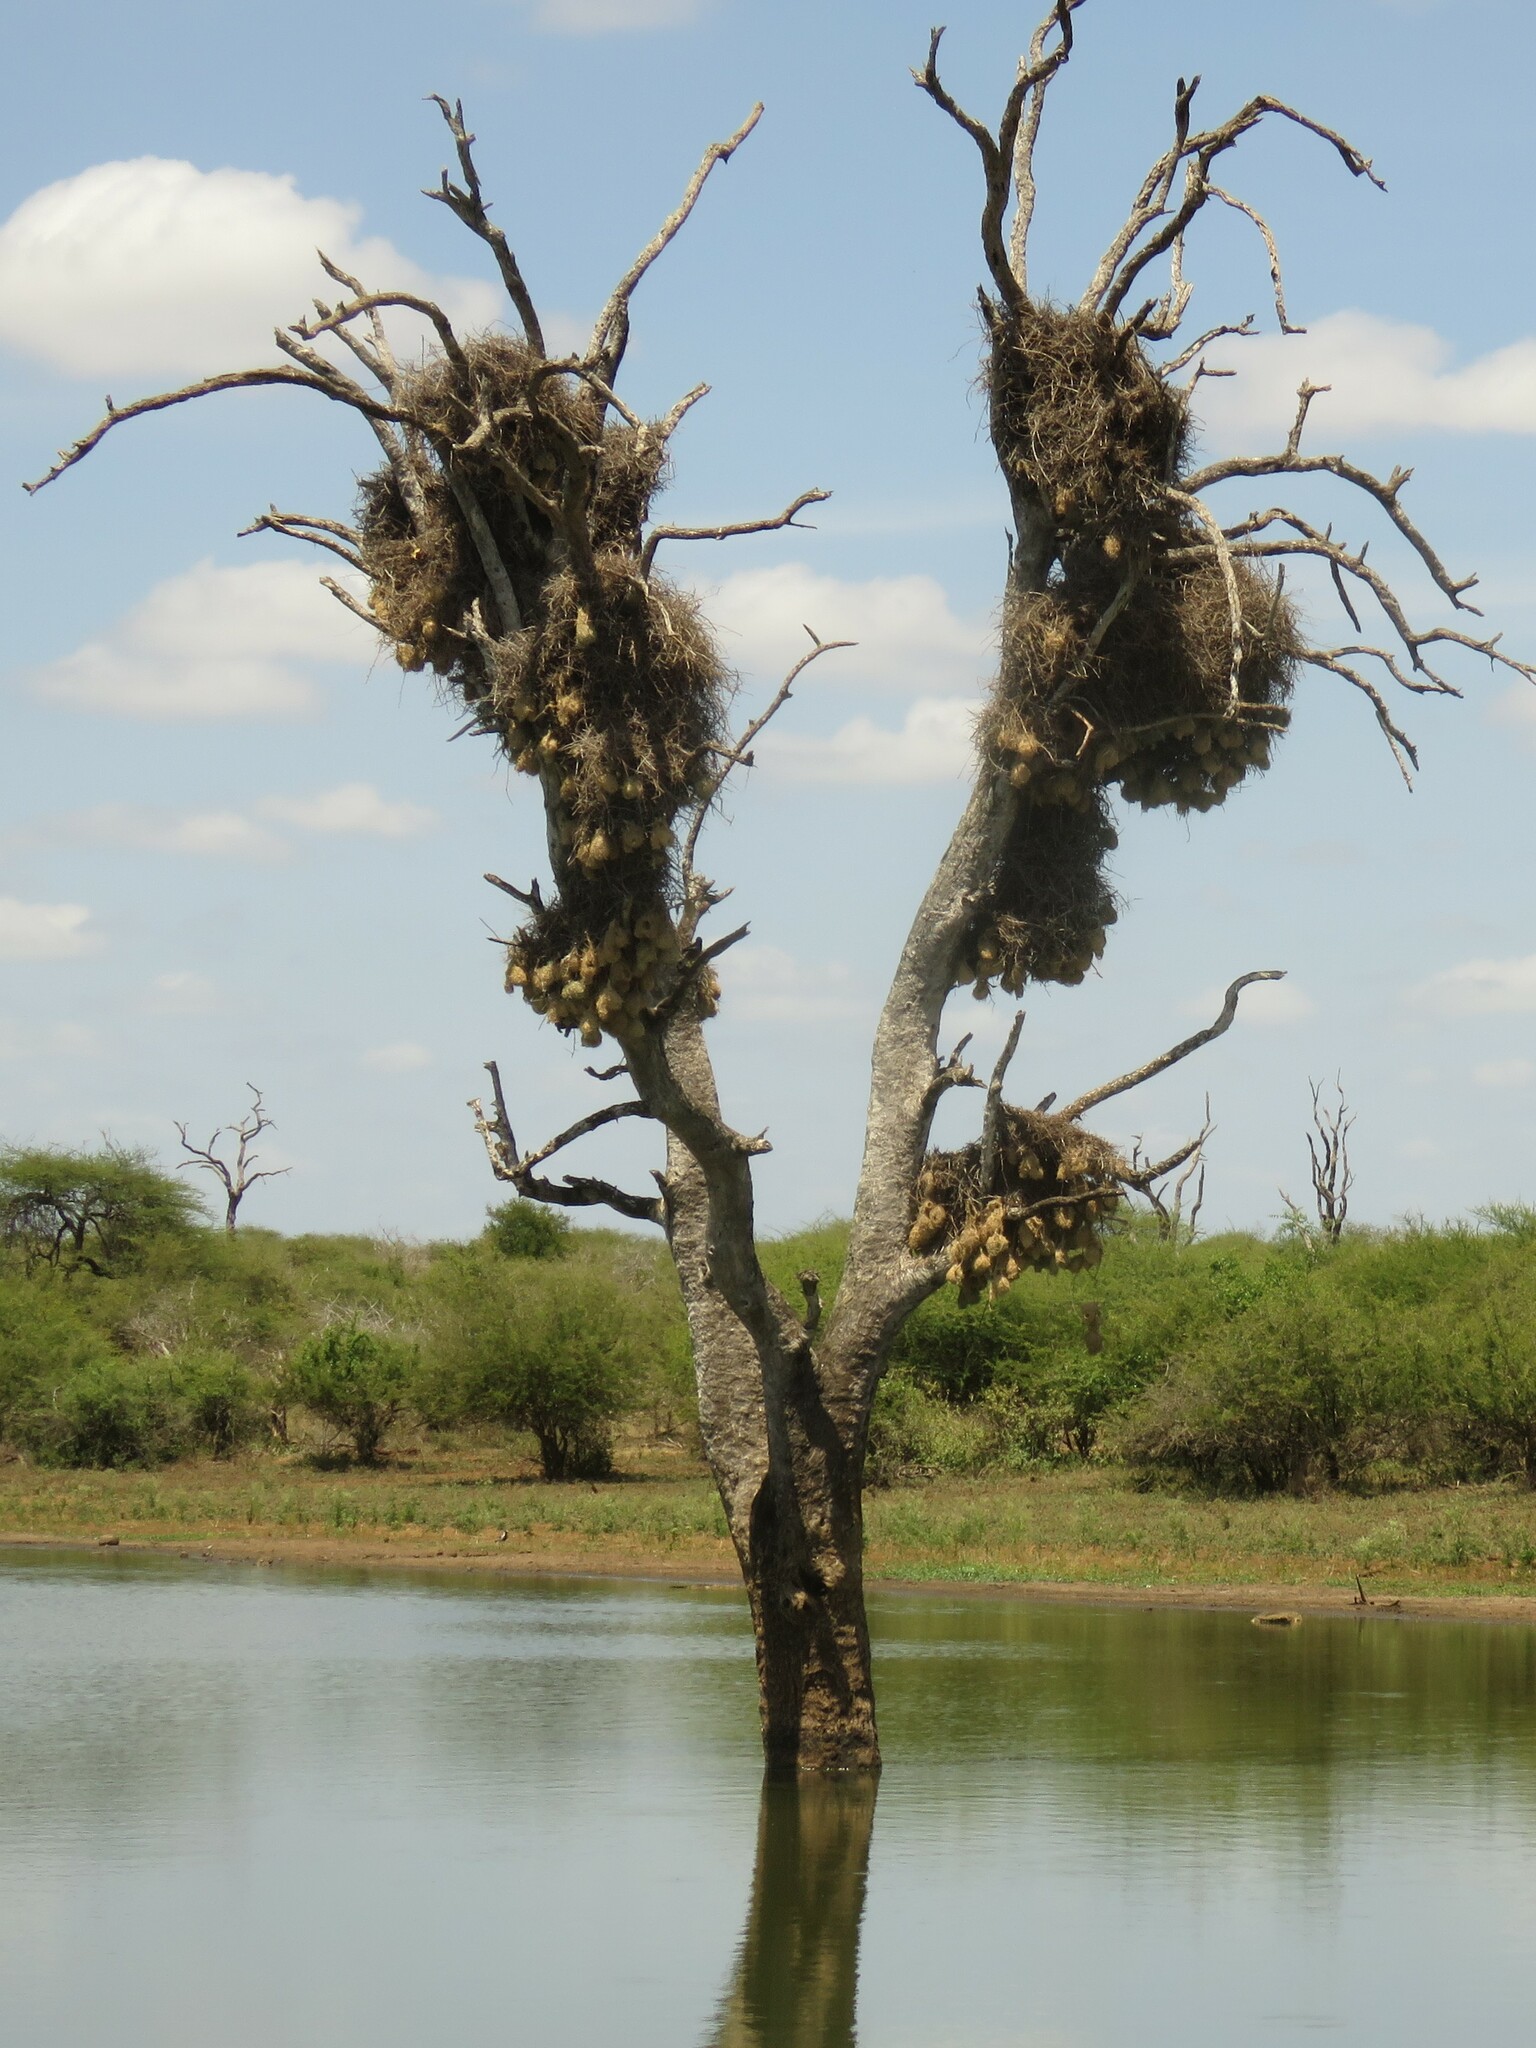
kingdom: Animalia
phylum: Chordata
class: Aves
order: Passeriformes
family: Ploceidae
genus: Bubalornis
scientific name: Bubalornis niger
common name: Red-billed buffalo weaver
